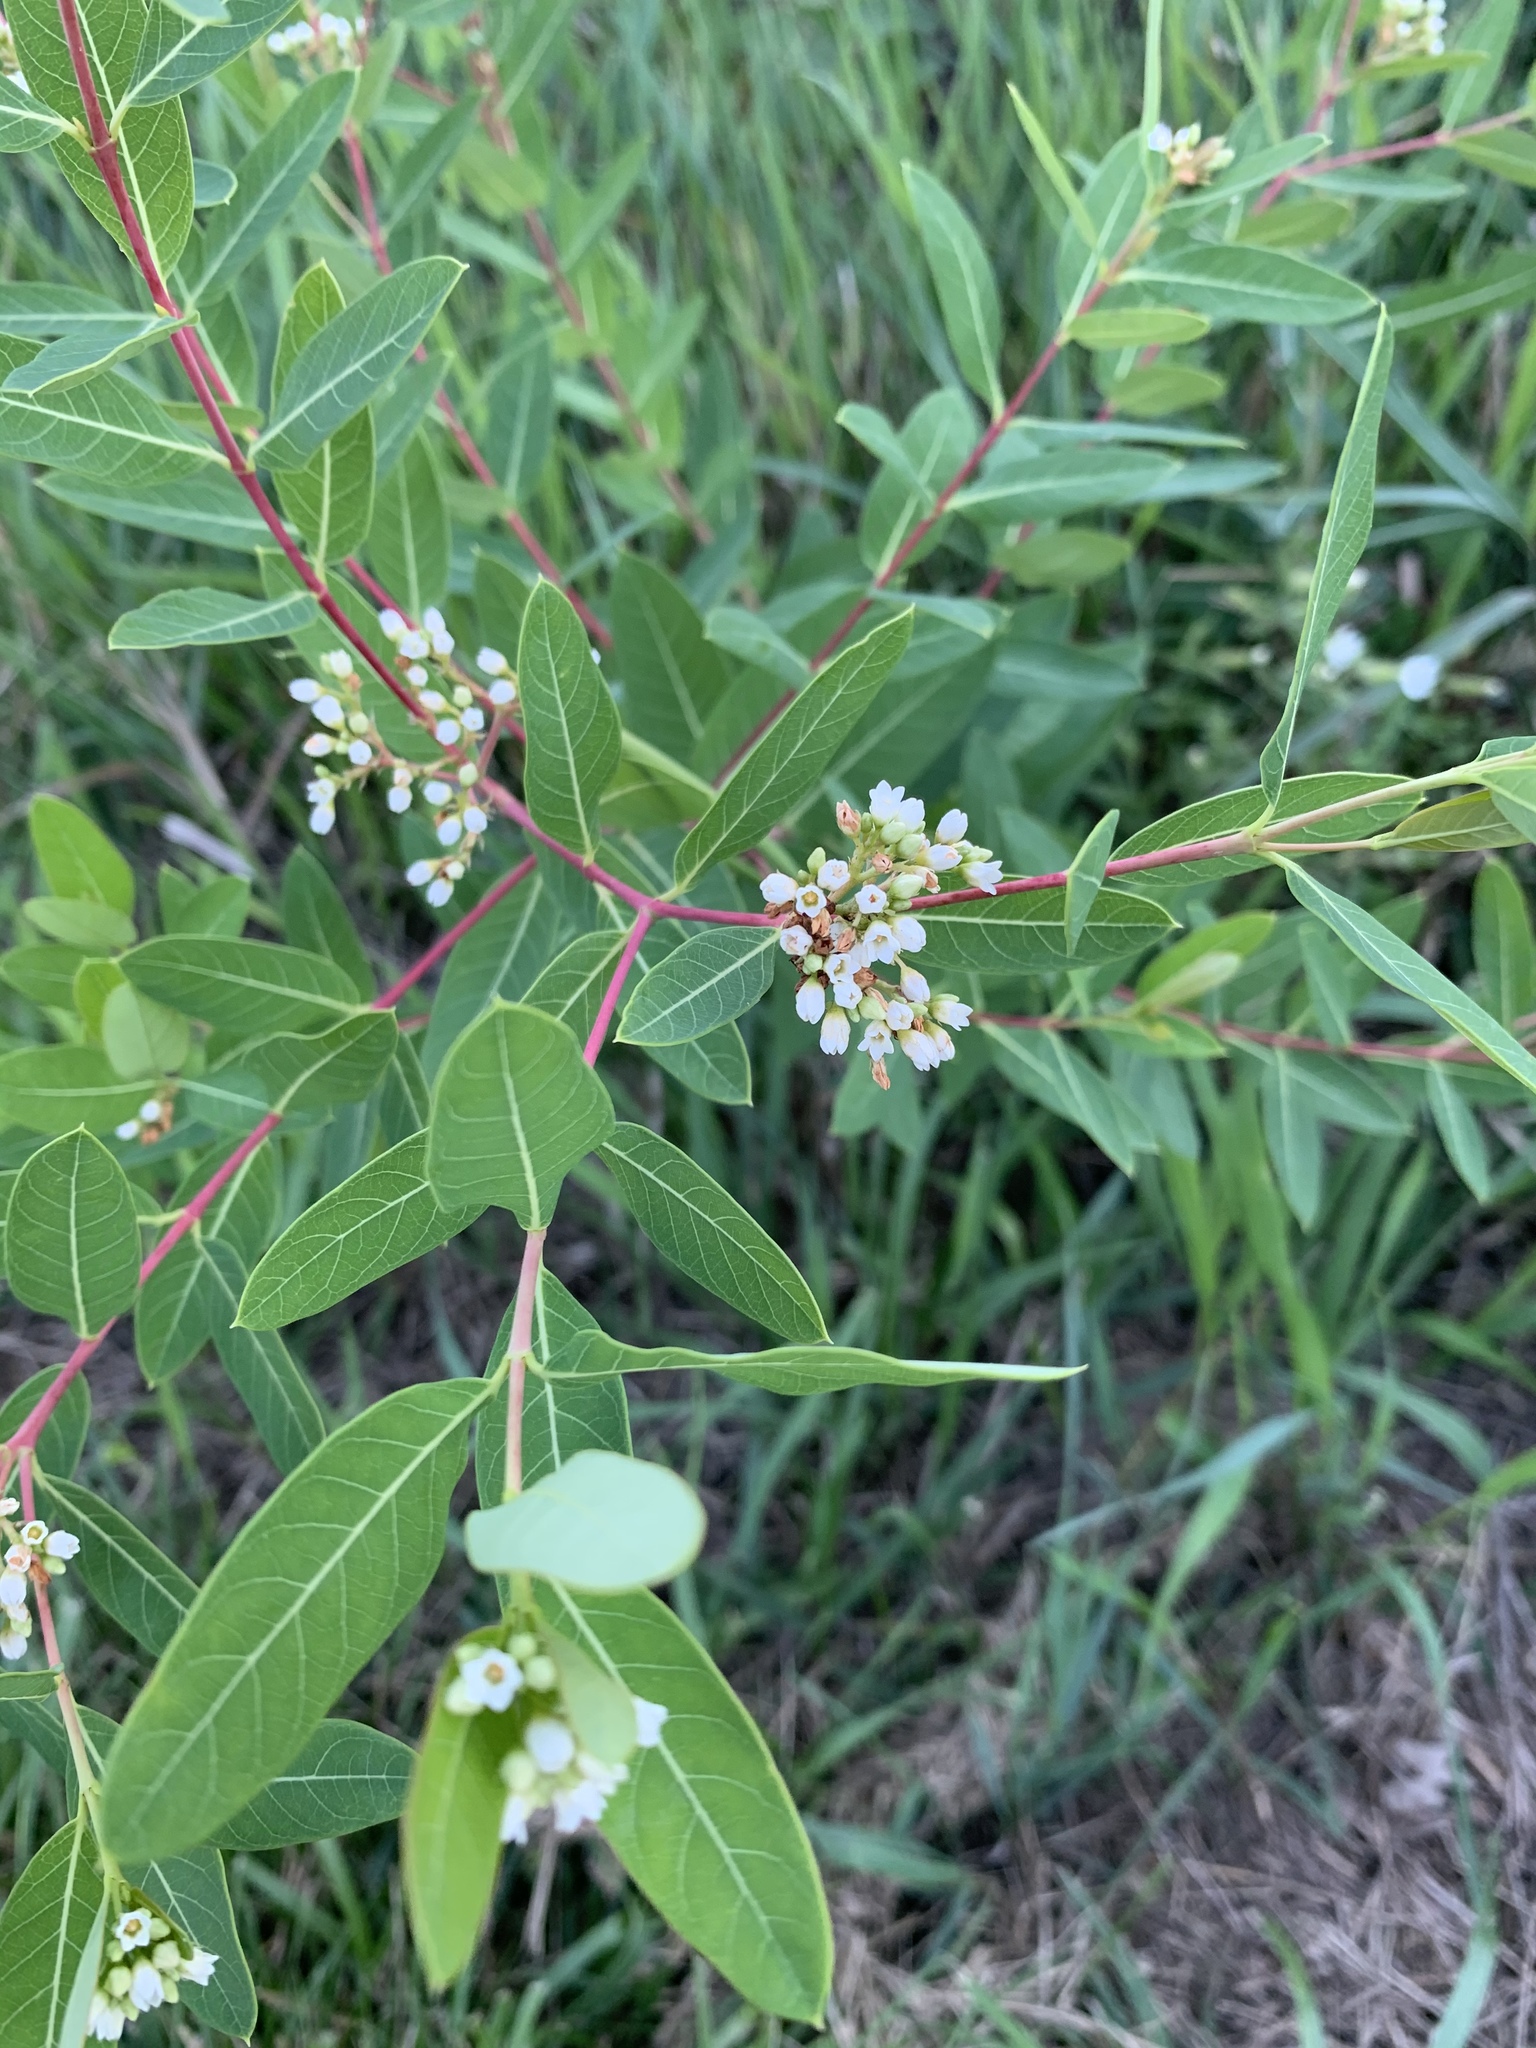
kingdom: Plantae
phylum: Tracheophyta
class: Magnoliopsida
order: Gentianales
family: Apocynaceae
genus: Apocynum
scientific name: Apocynum cannabinum
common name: Hemp dogbane
